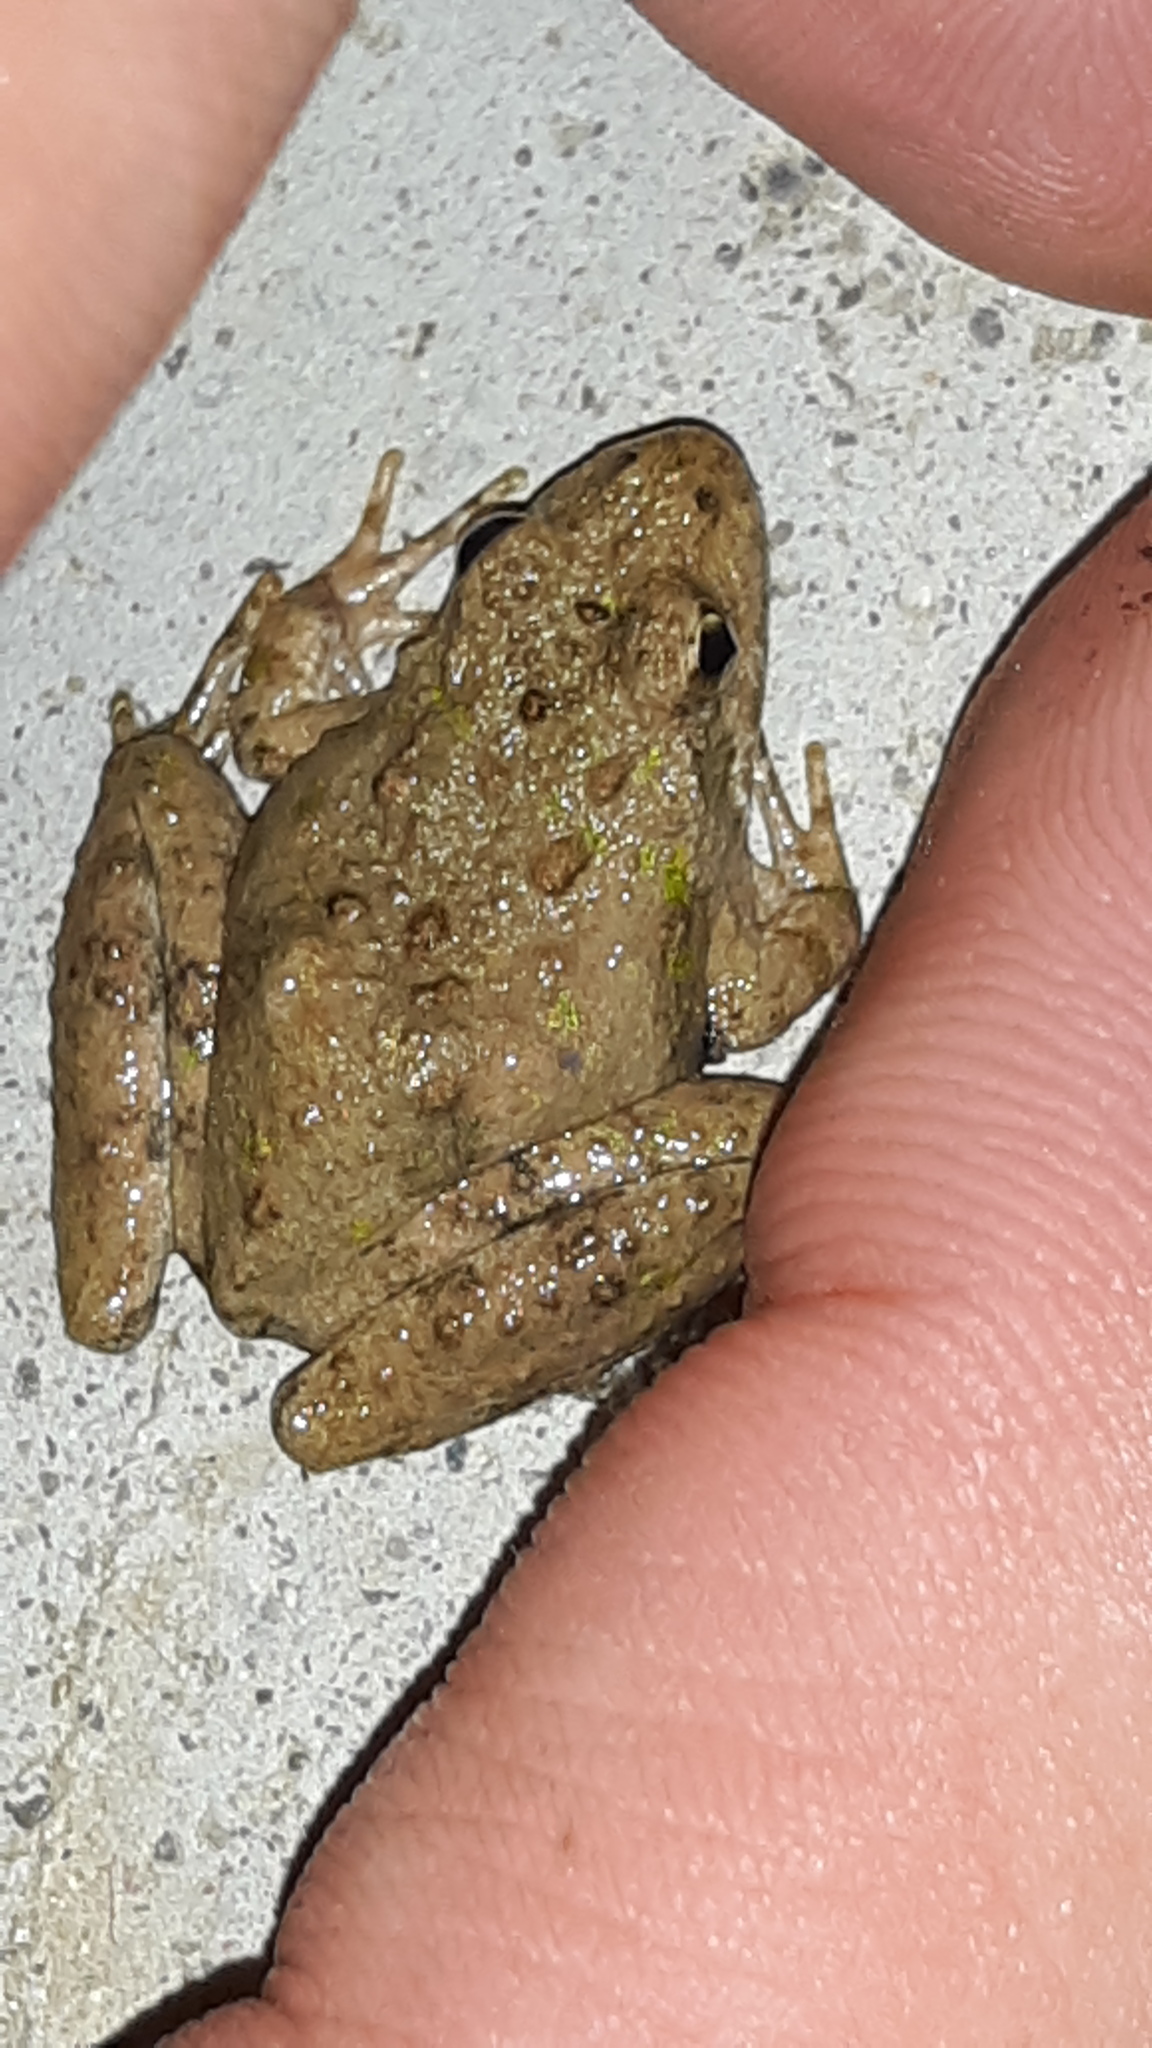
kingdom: Animalia
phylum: Chordata
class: Amphibia
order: Anura
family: Hylidae
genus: Acris
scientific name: Acris blanchardi
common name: Blanchard's cricket frog
